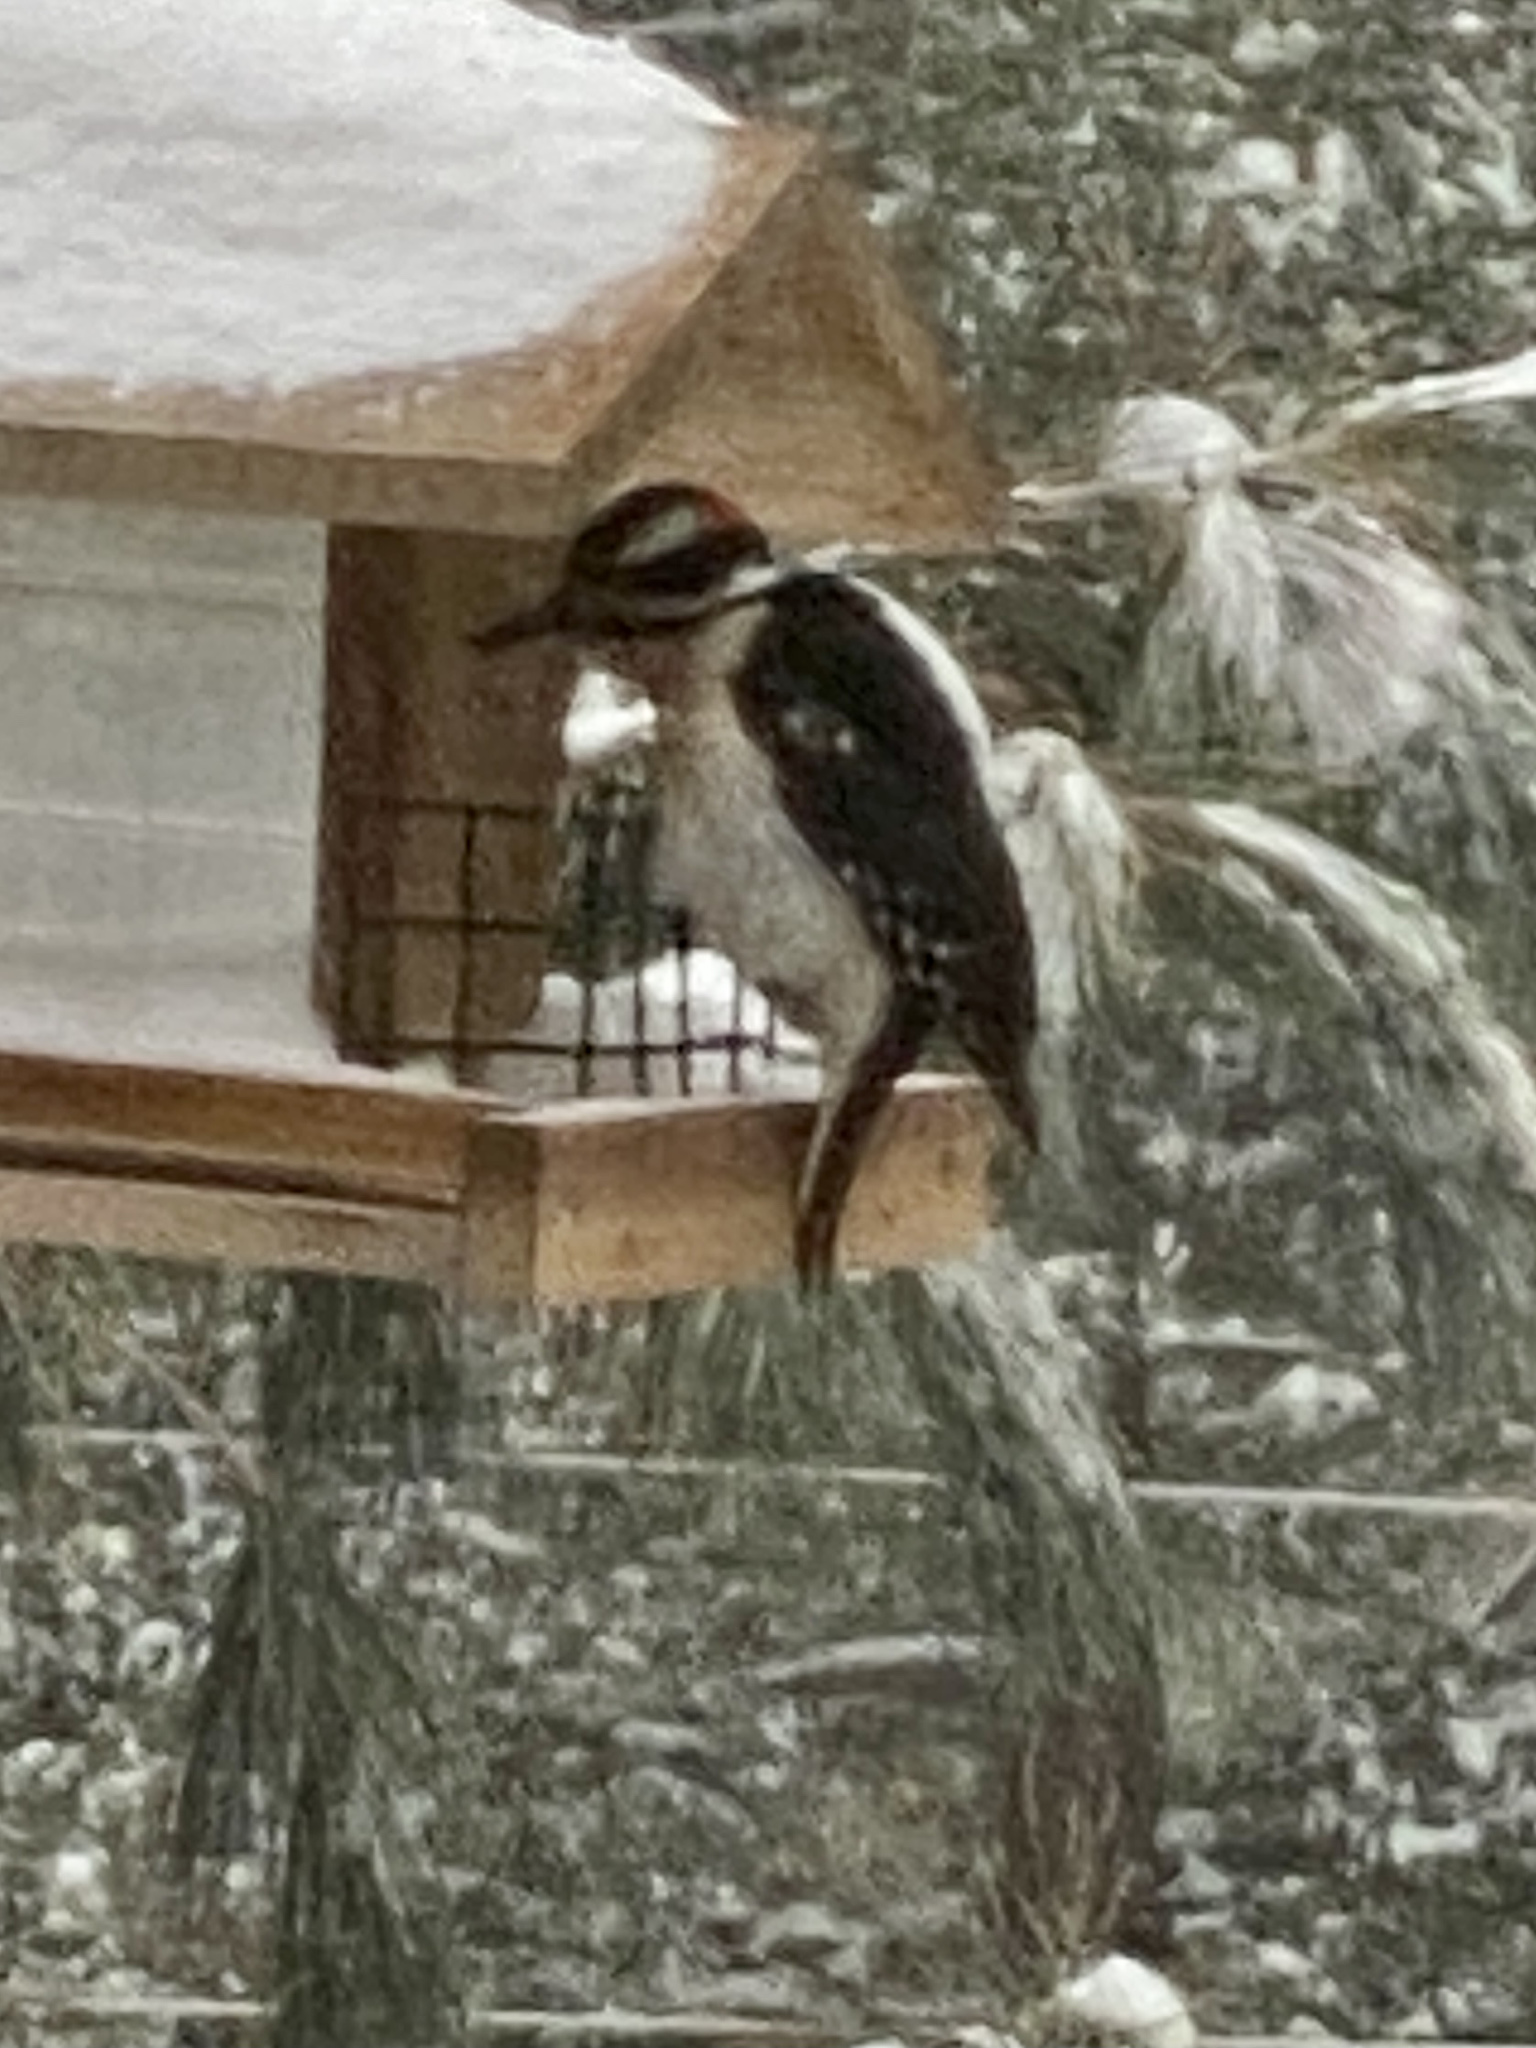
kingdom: Animalia
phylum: Chordata
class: Aves
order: Piciformes
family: Picidae
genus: Leuconotopicus
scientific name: Leuconotopicus villosus
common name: Hairy woodpecker
